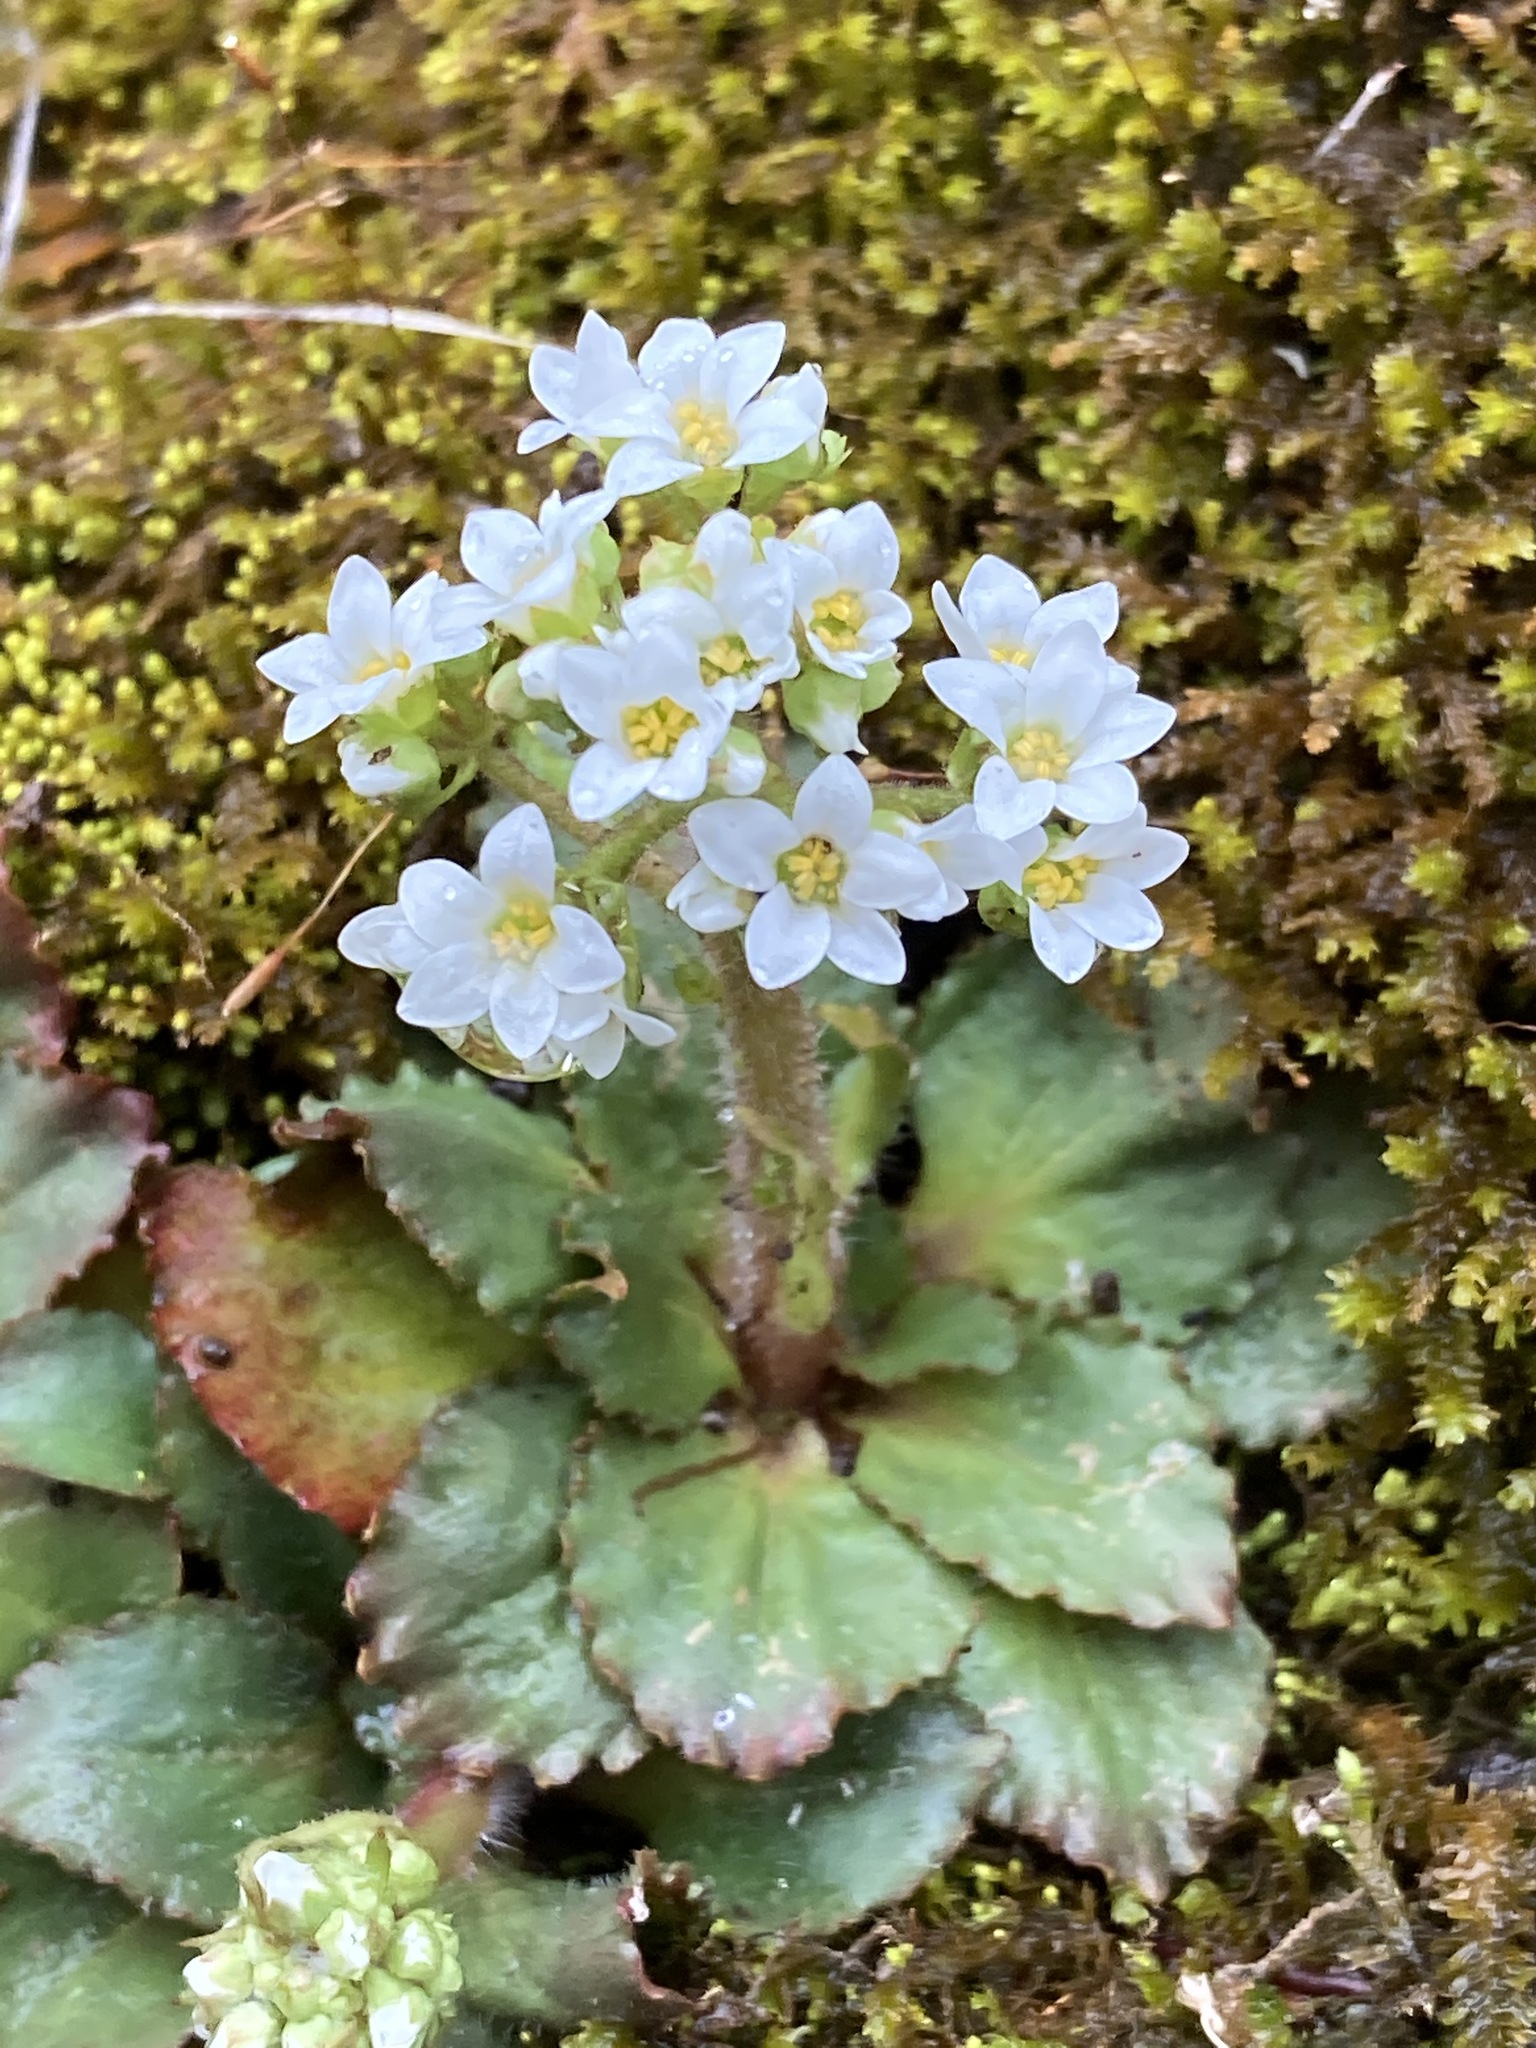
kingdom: Plantae
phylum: Tracheophyta
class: Magnoliopsida
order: Saxifragales
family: Saxifragaceae
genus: Micranthes
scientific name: Micranthes virginiensis
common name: Early saxifrage
